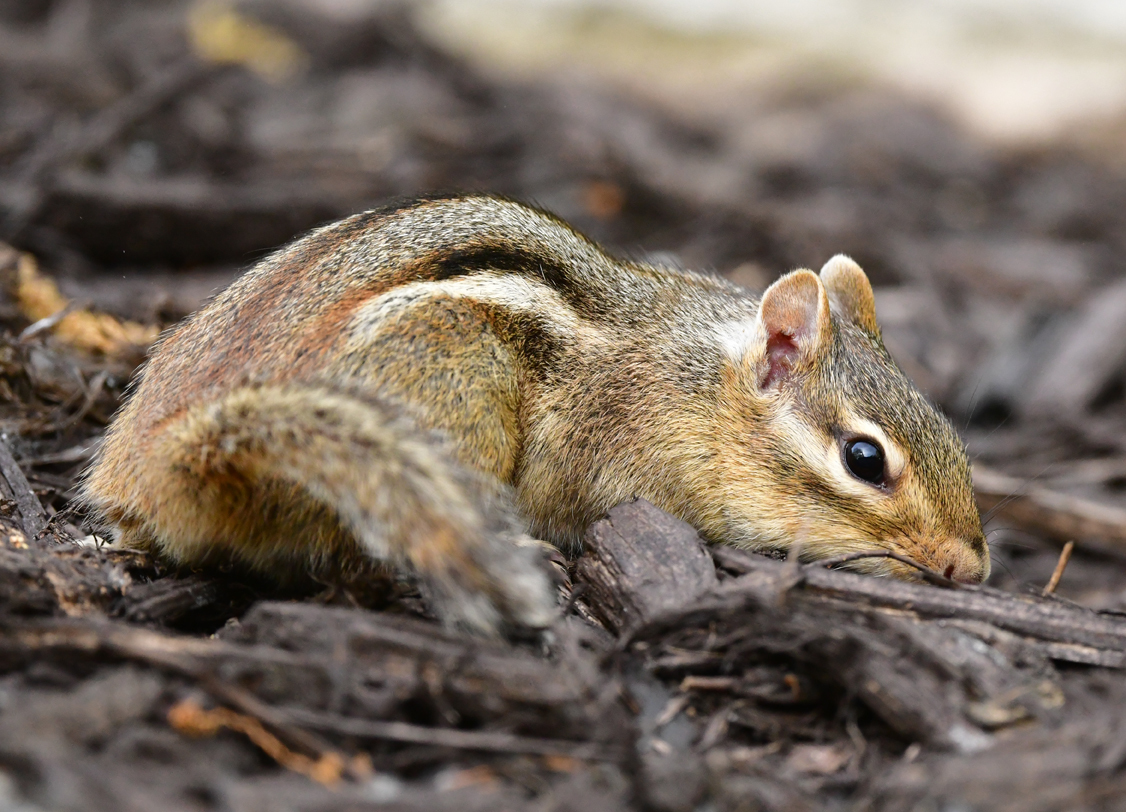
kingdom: Animalia
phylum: Chordata
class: Mammalia
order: Rodentia
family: Sciuridae
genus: Tamias
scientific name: Tamias striatus
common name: Eastern chipmunk
